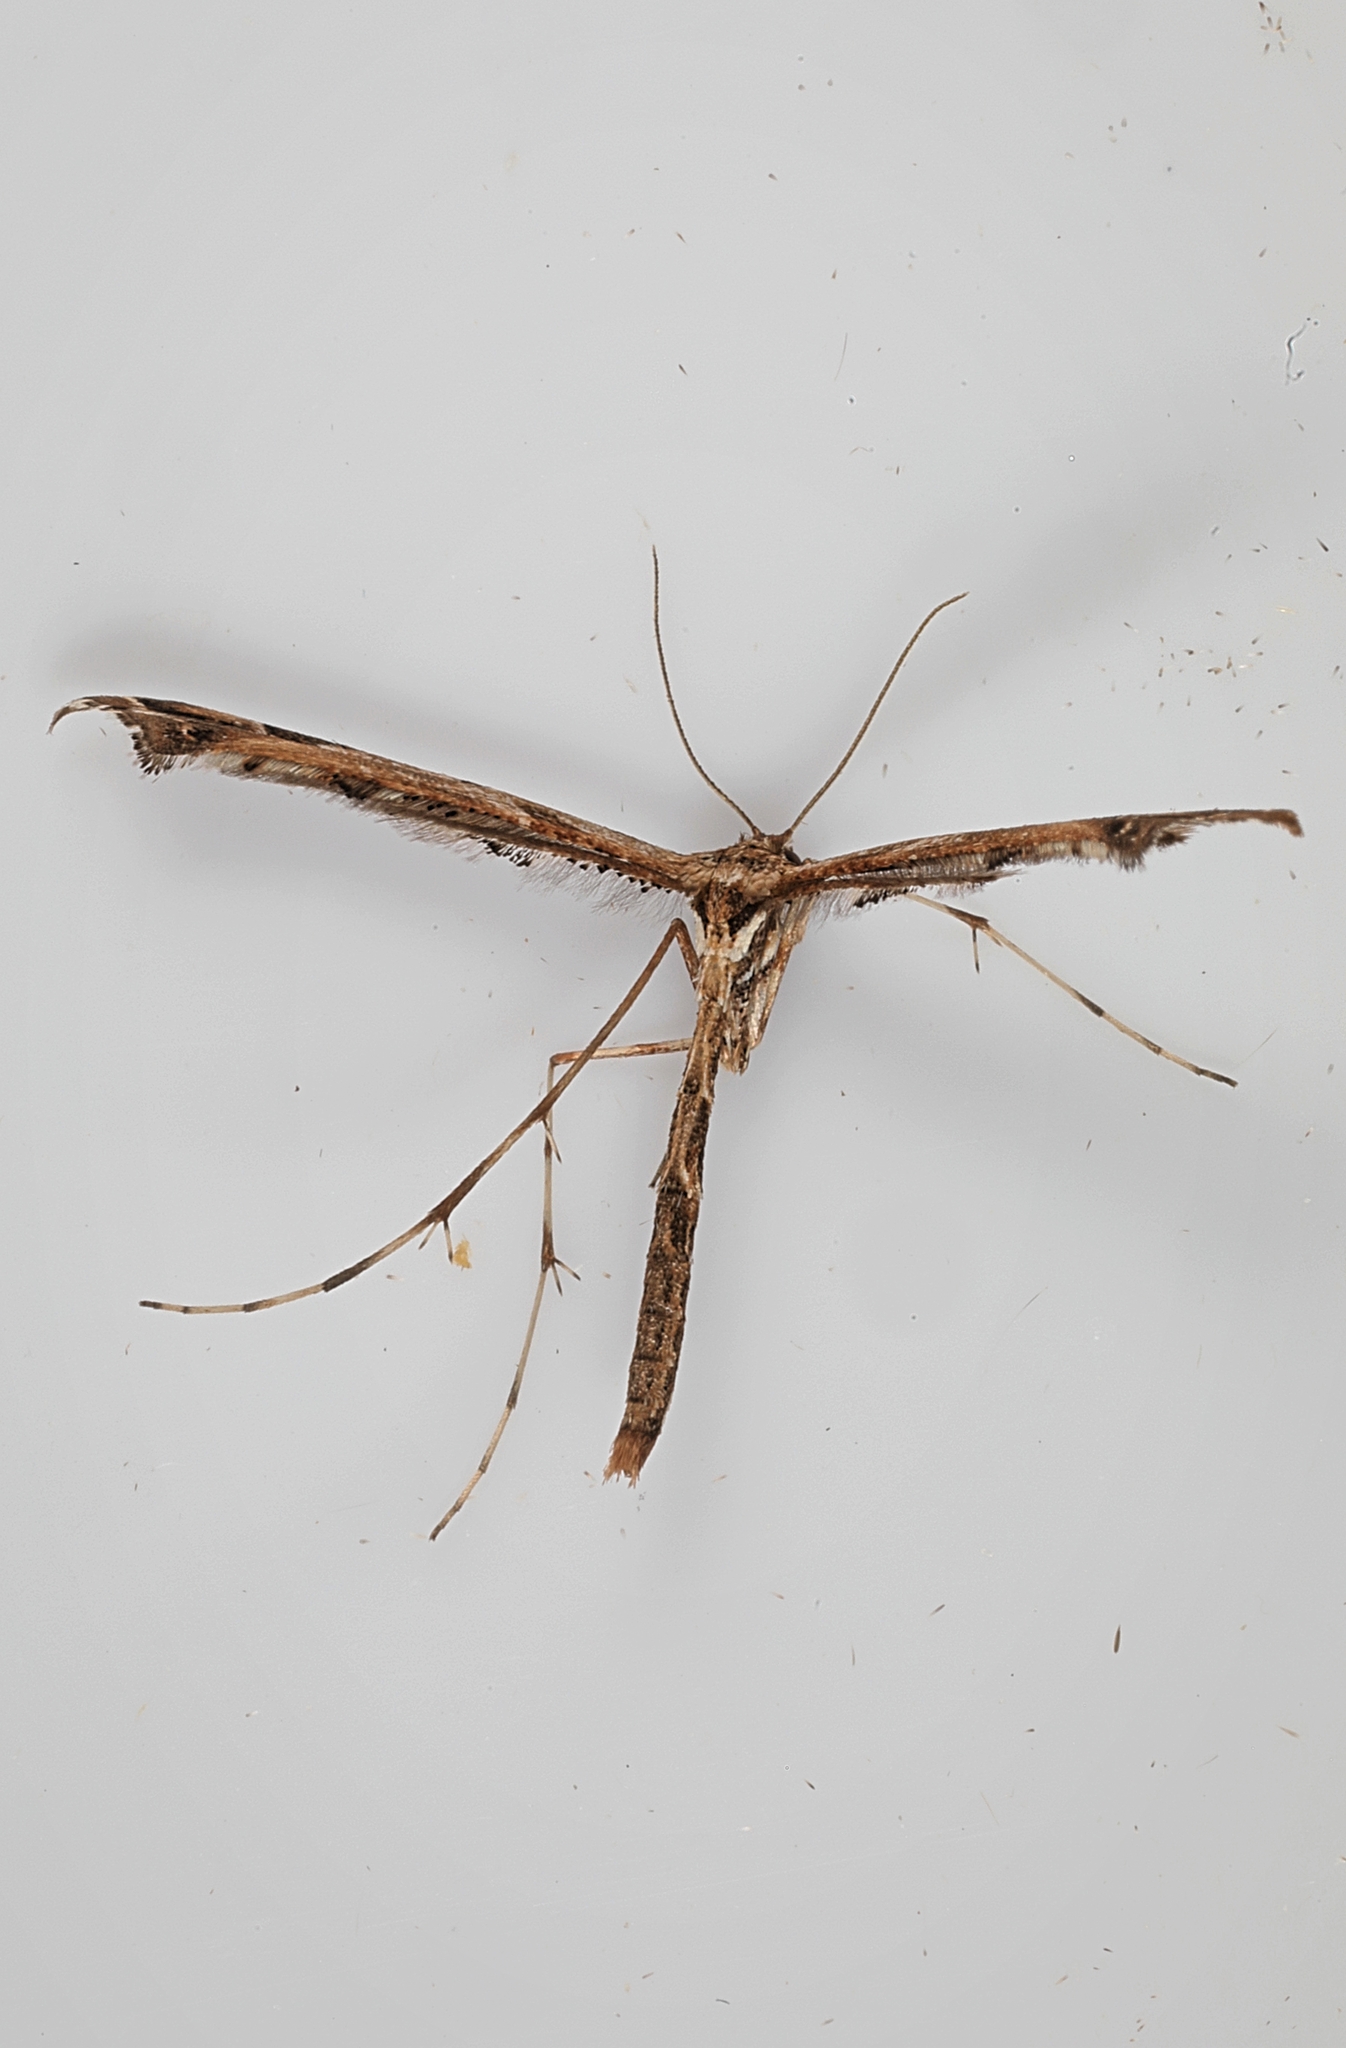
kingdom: Animalia
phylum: Arthropoda
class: Insecta
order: Lepidoptera
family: Pterophoridae
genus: Amblyptilia
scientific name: Amblyptilia acanthadactyla
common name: Beautiful plume
